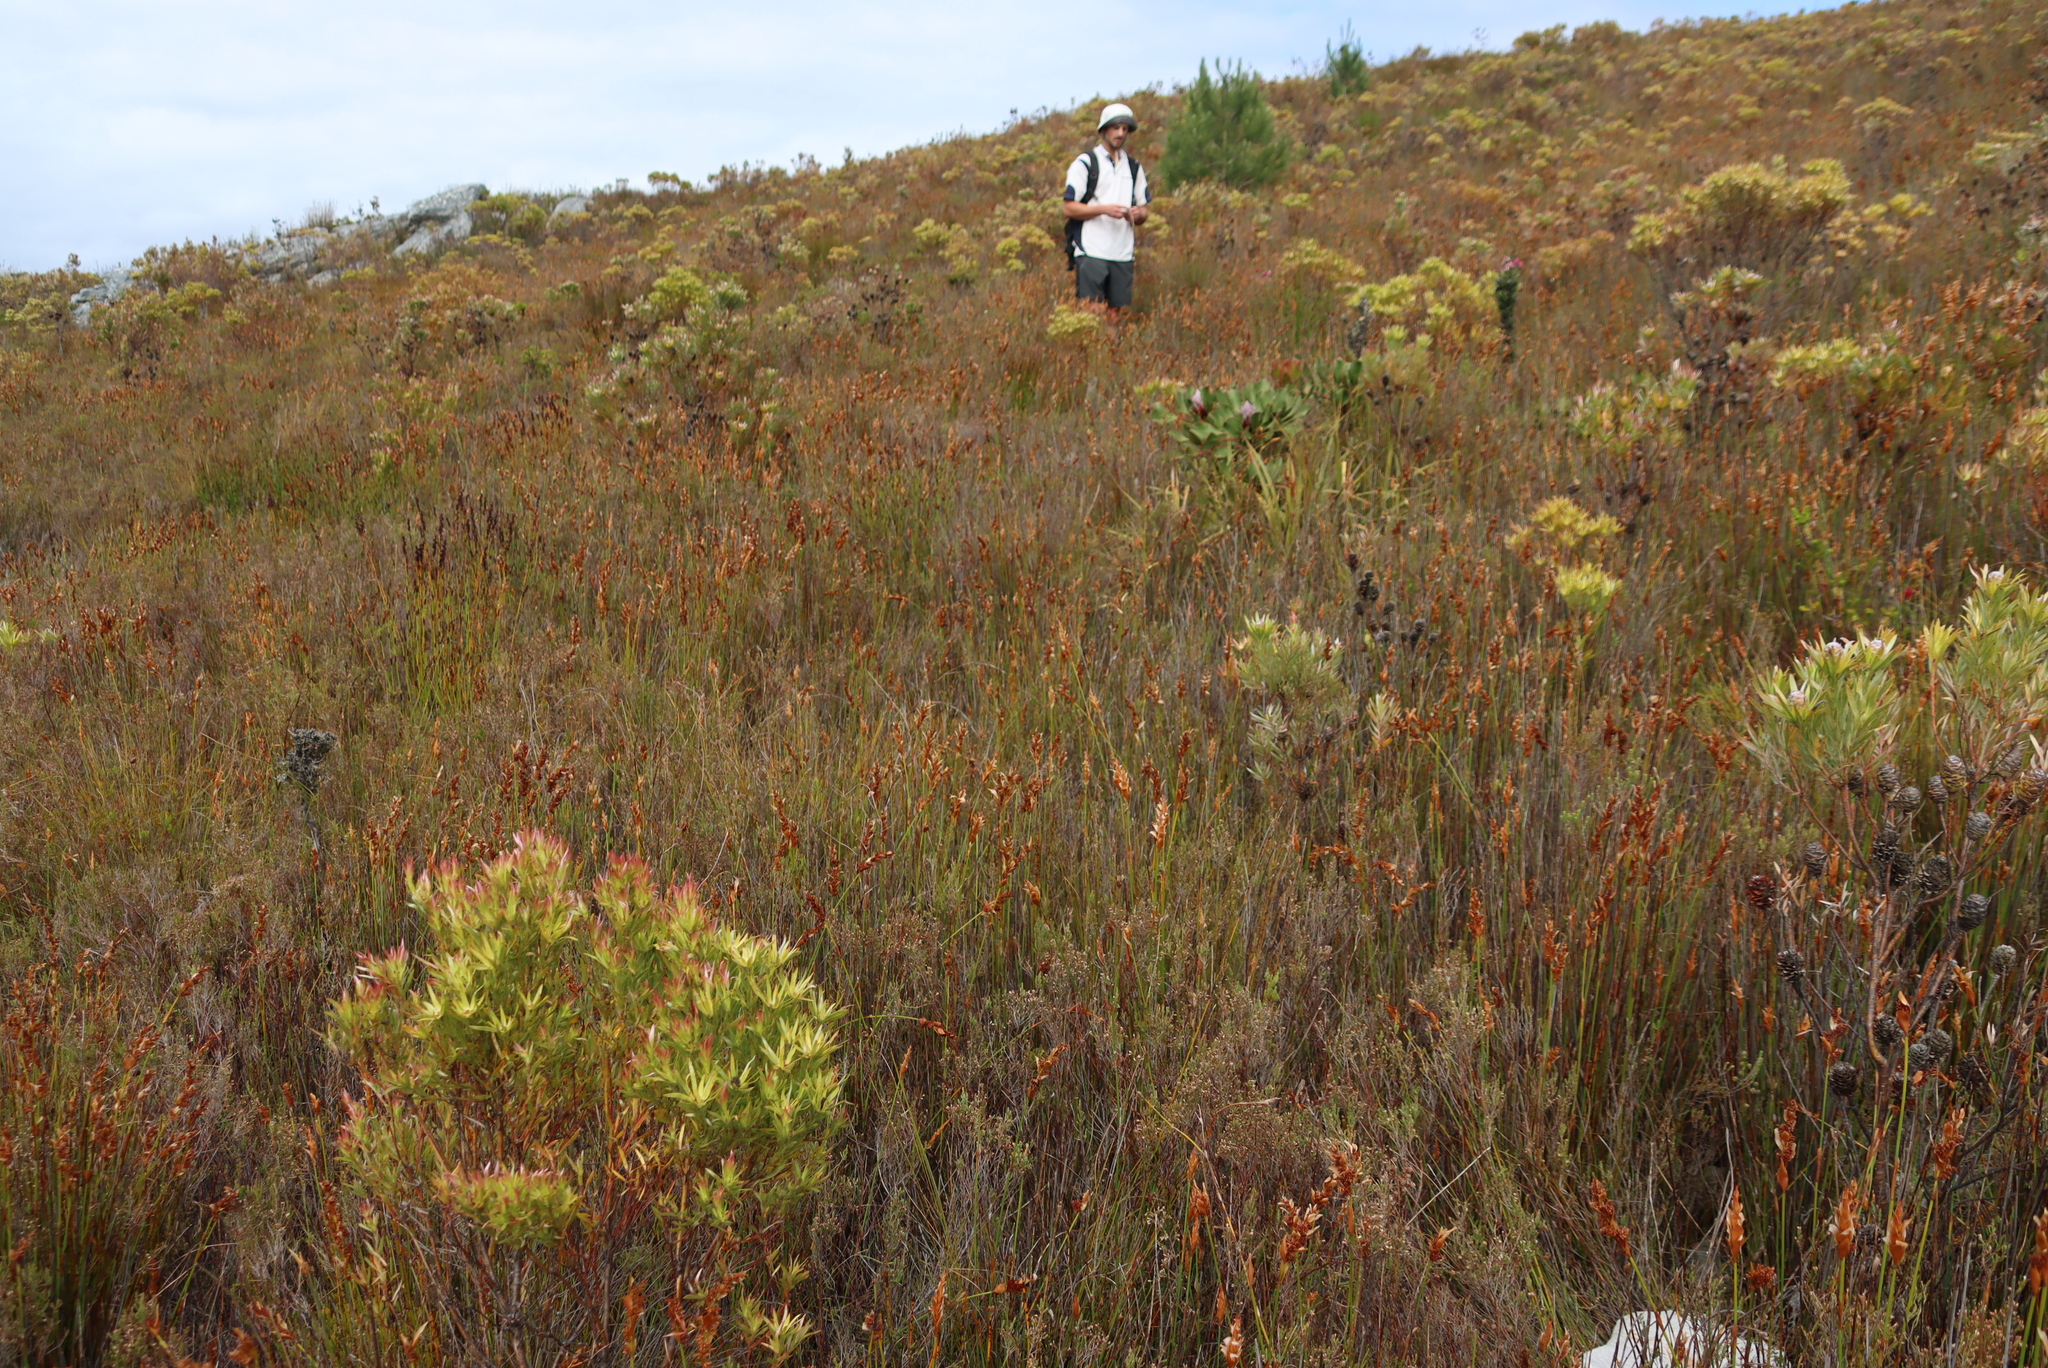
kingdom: Plantae
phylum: Tracheophyta
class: Liliopsida
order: Poales
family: Restionaceae
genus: Elegia
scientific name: Elegia juncea
